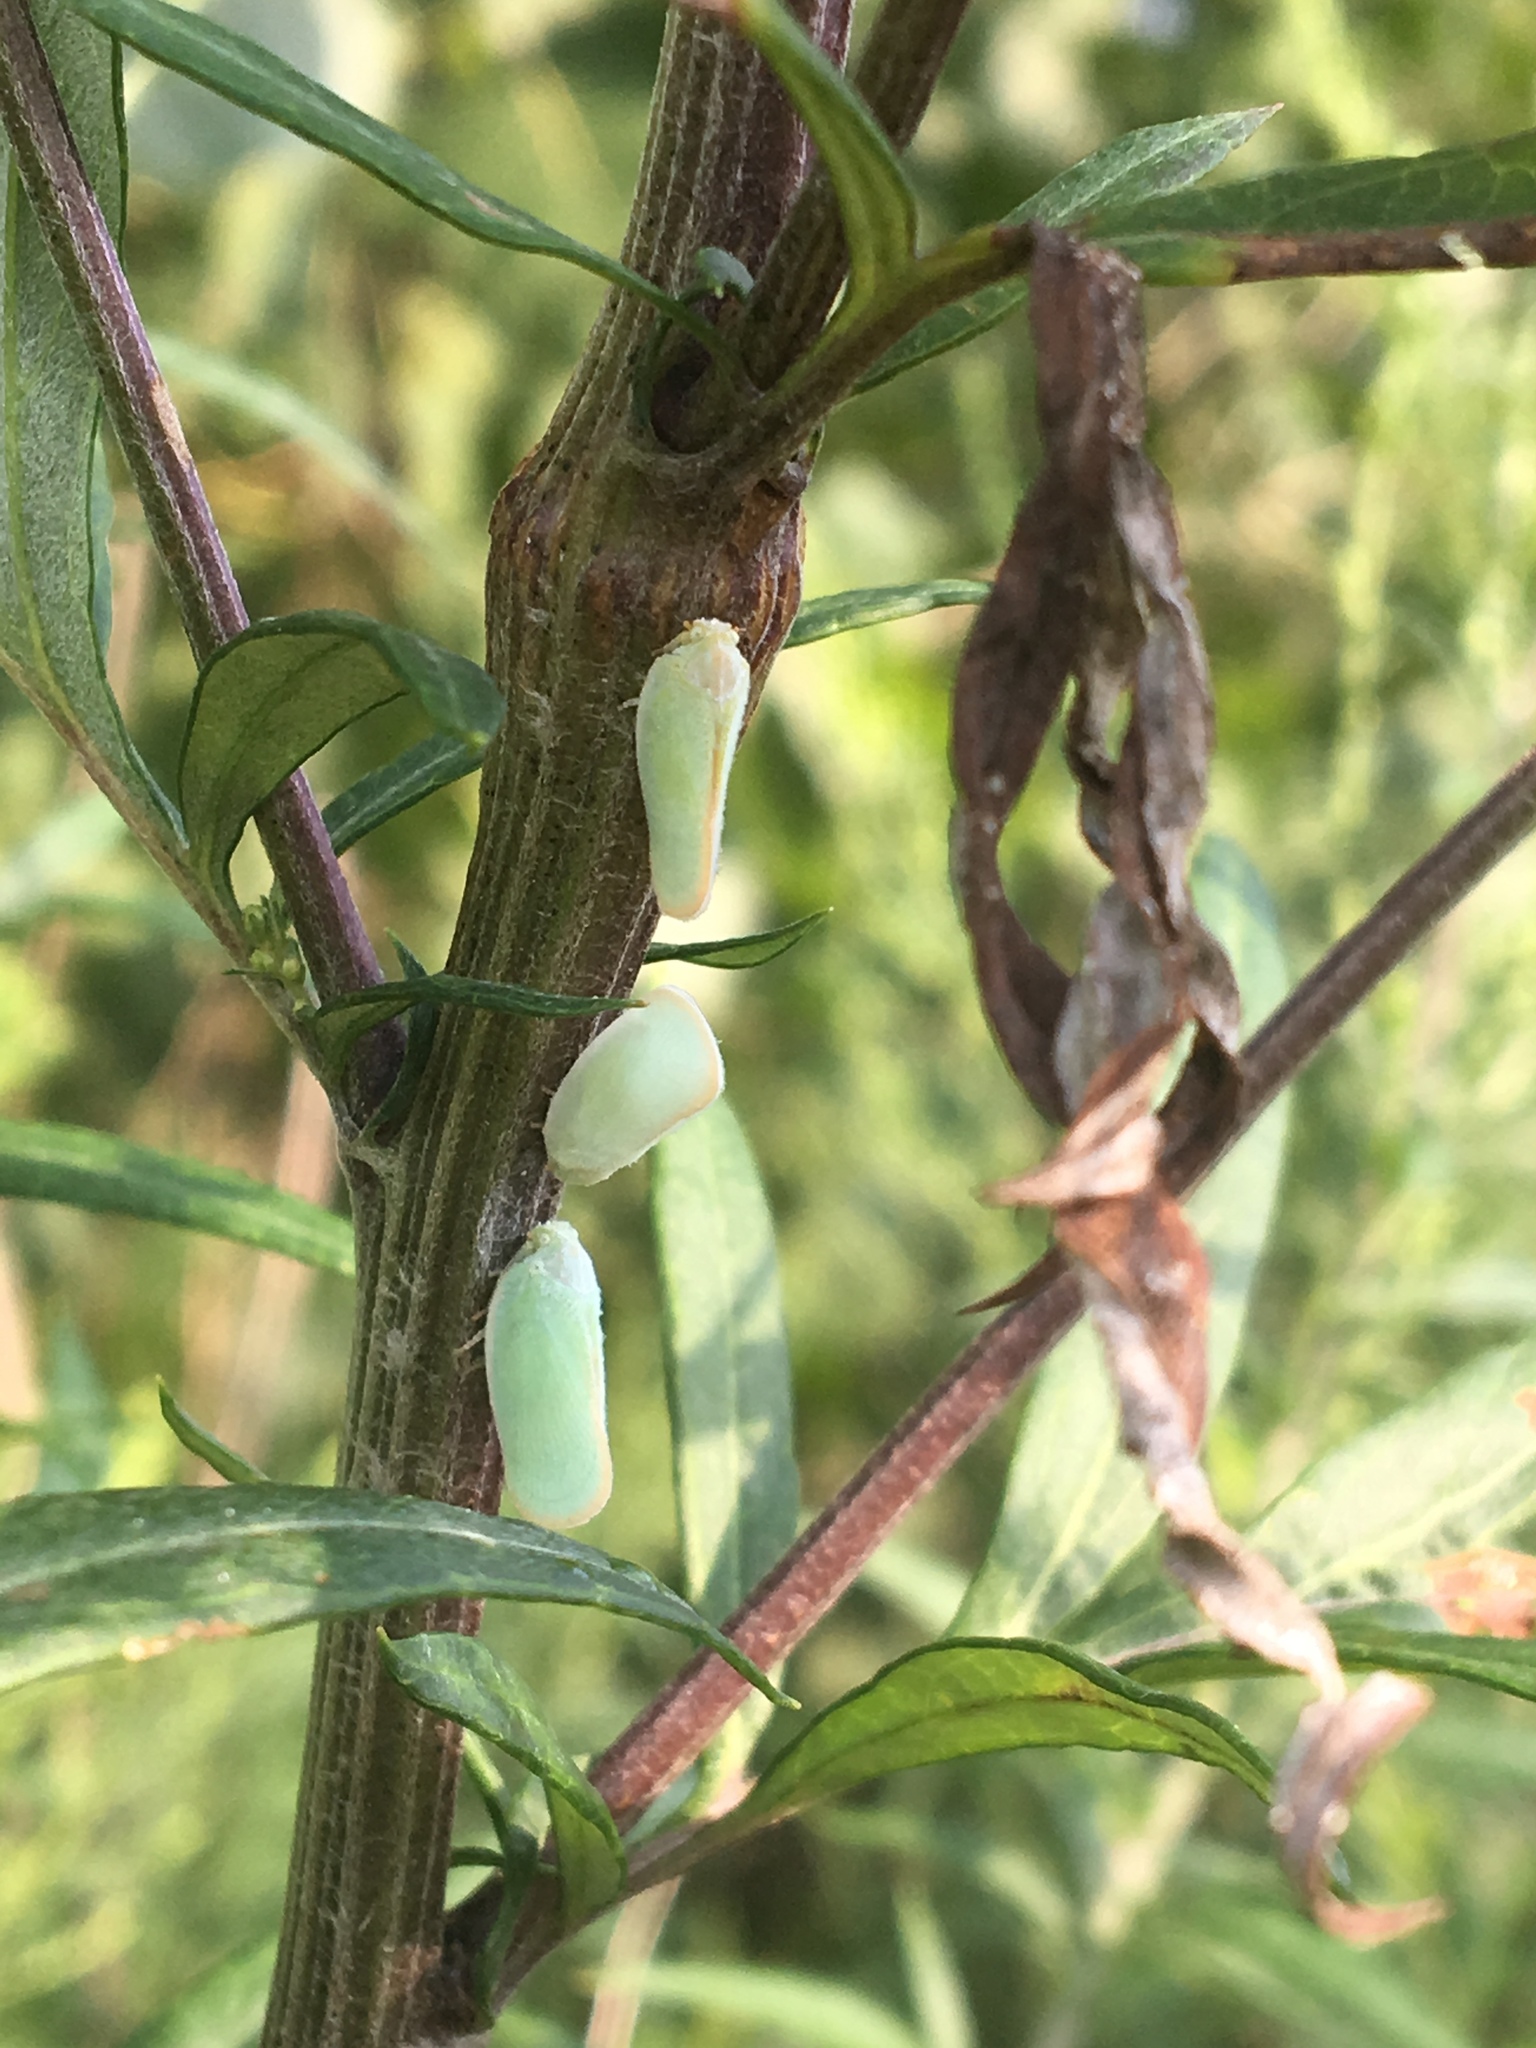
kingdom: Animalia
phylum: Arthropoda
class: Insecta
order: Hemiptera
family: Flatidae
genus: Ormenoides
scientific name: Ormenoides venusta
